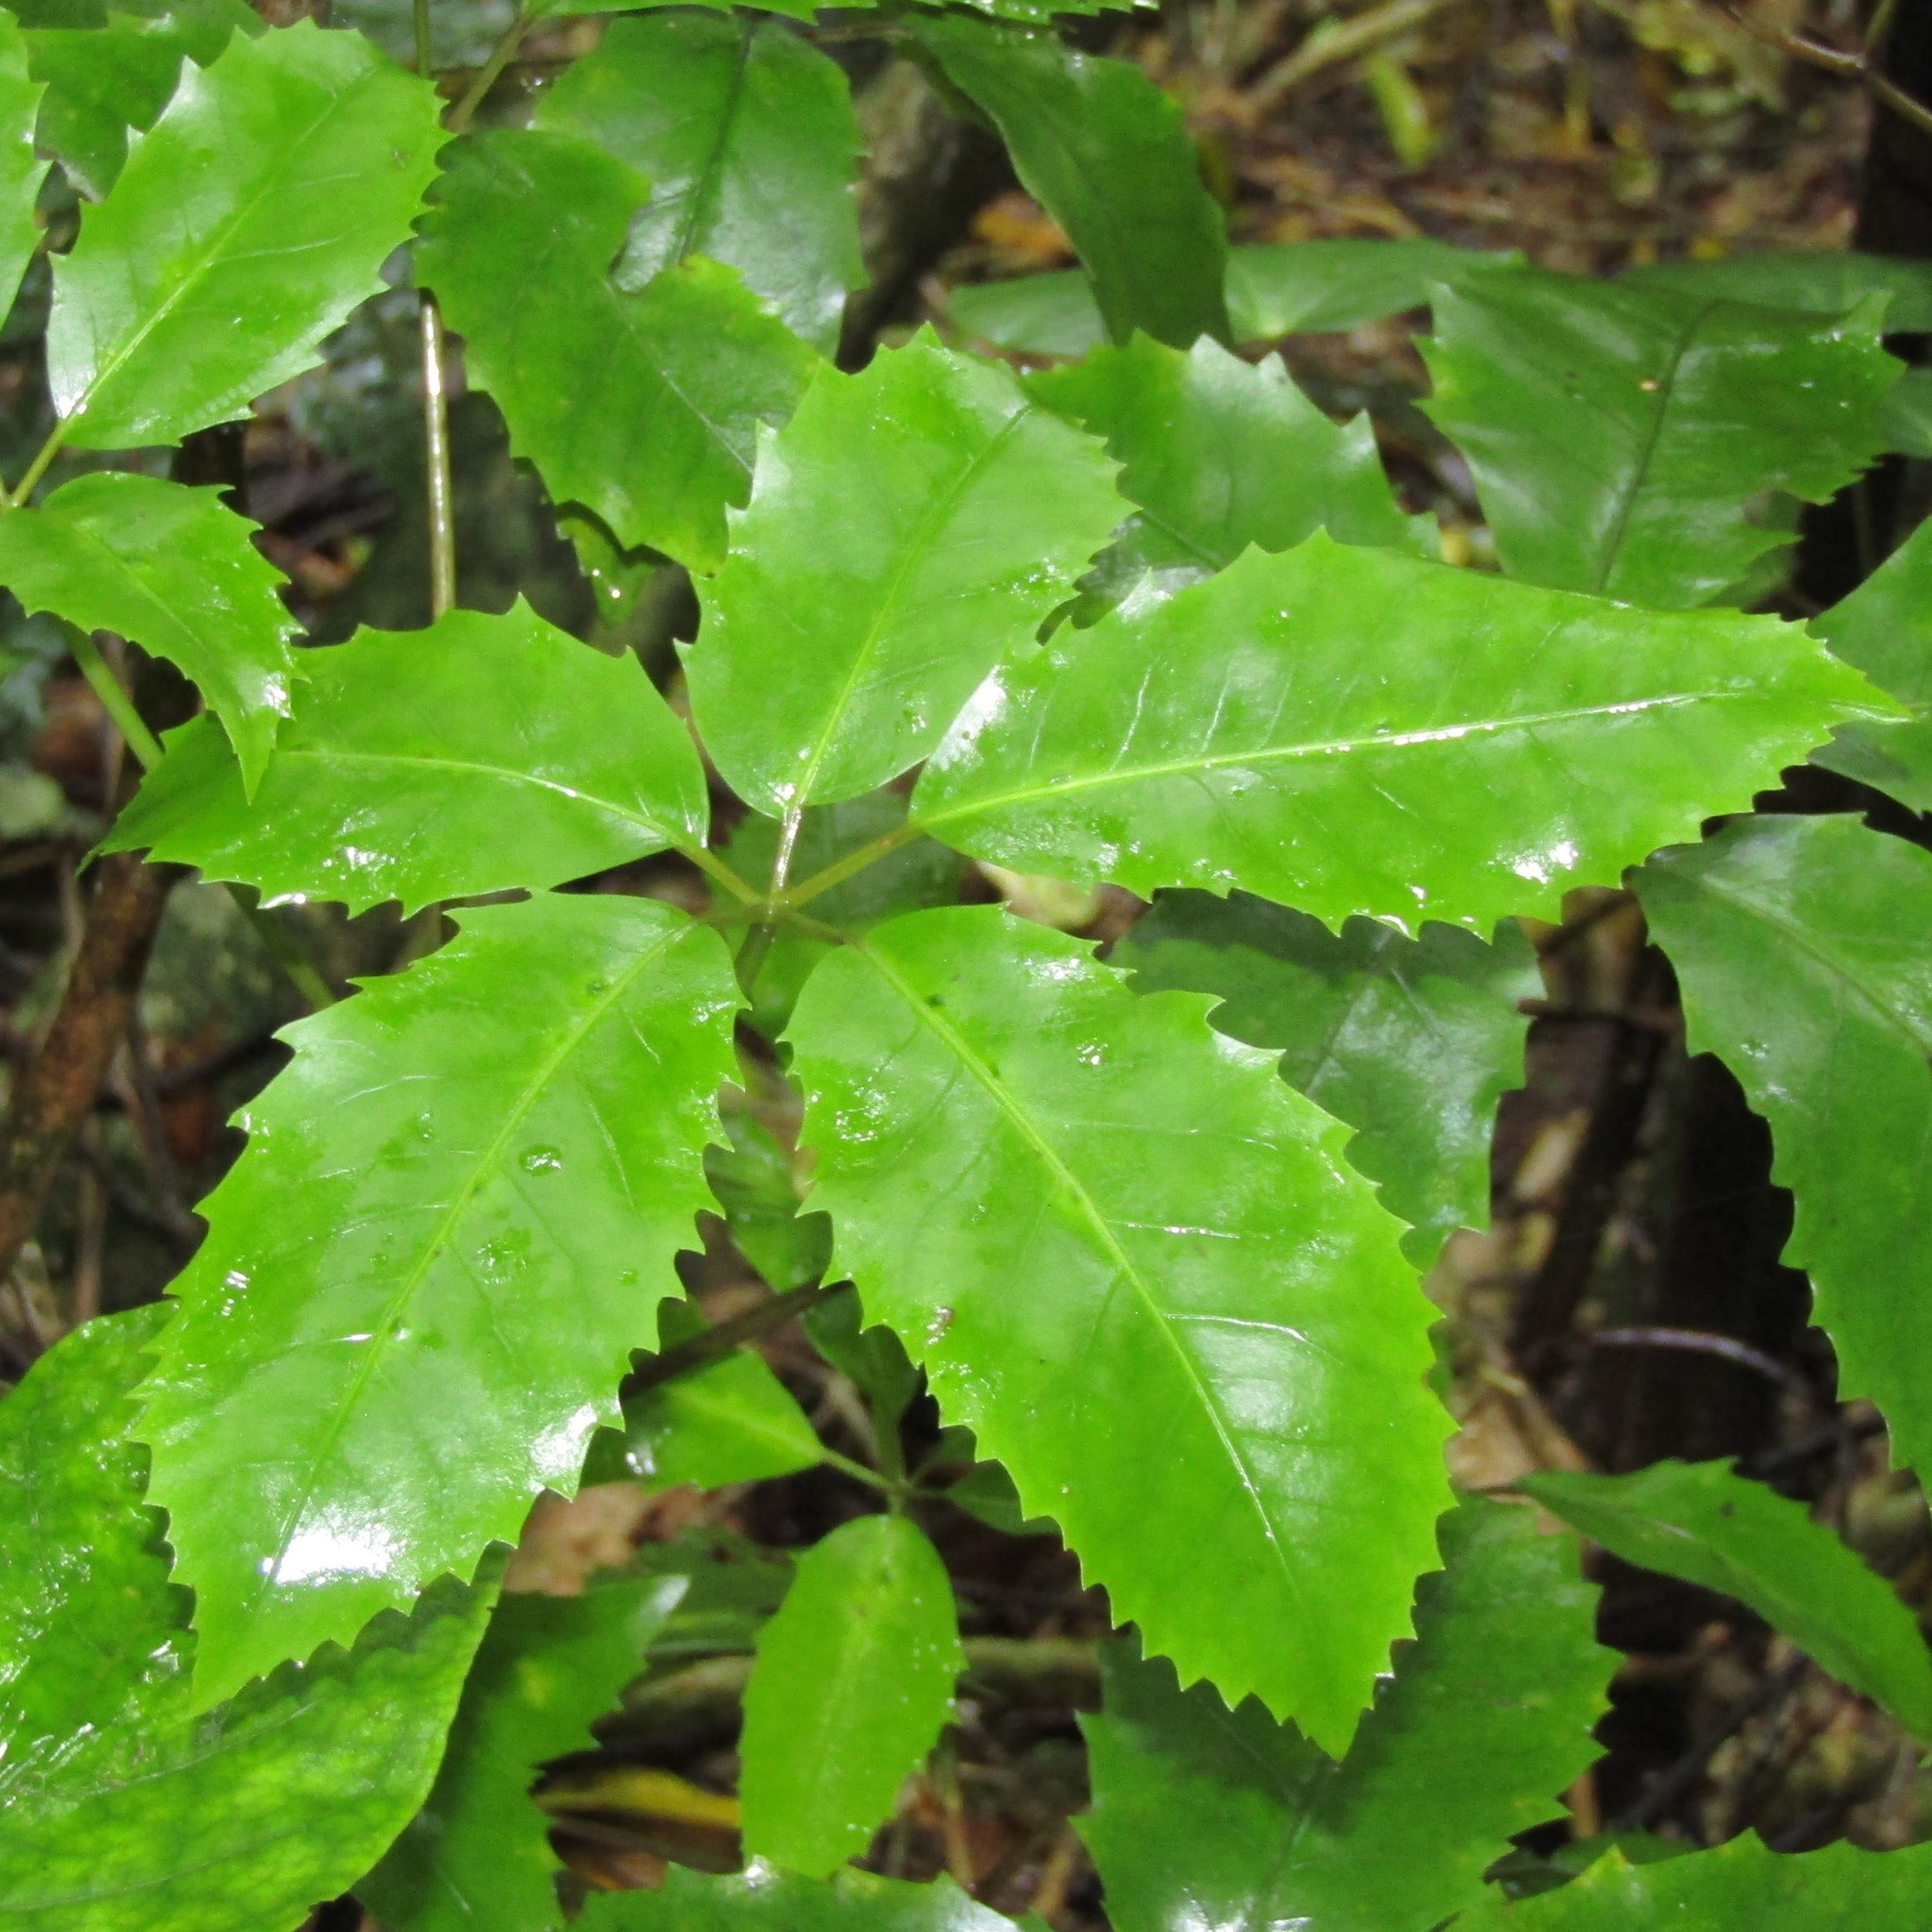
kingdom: Plantae
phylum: Tracheophyta
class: Magnoliopsida
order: Apiales
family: Araliaceae
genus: Neopanax
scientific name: Neopanax arboreus
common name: Five-fingers
